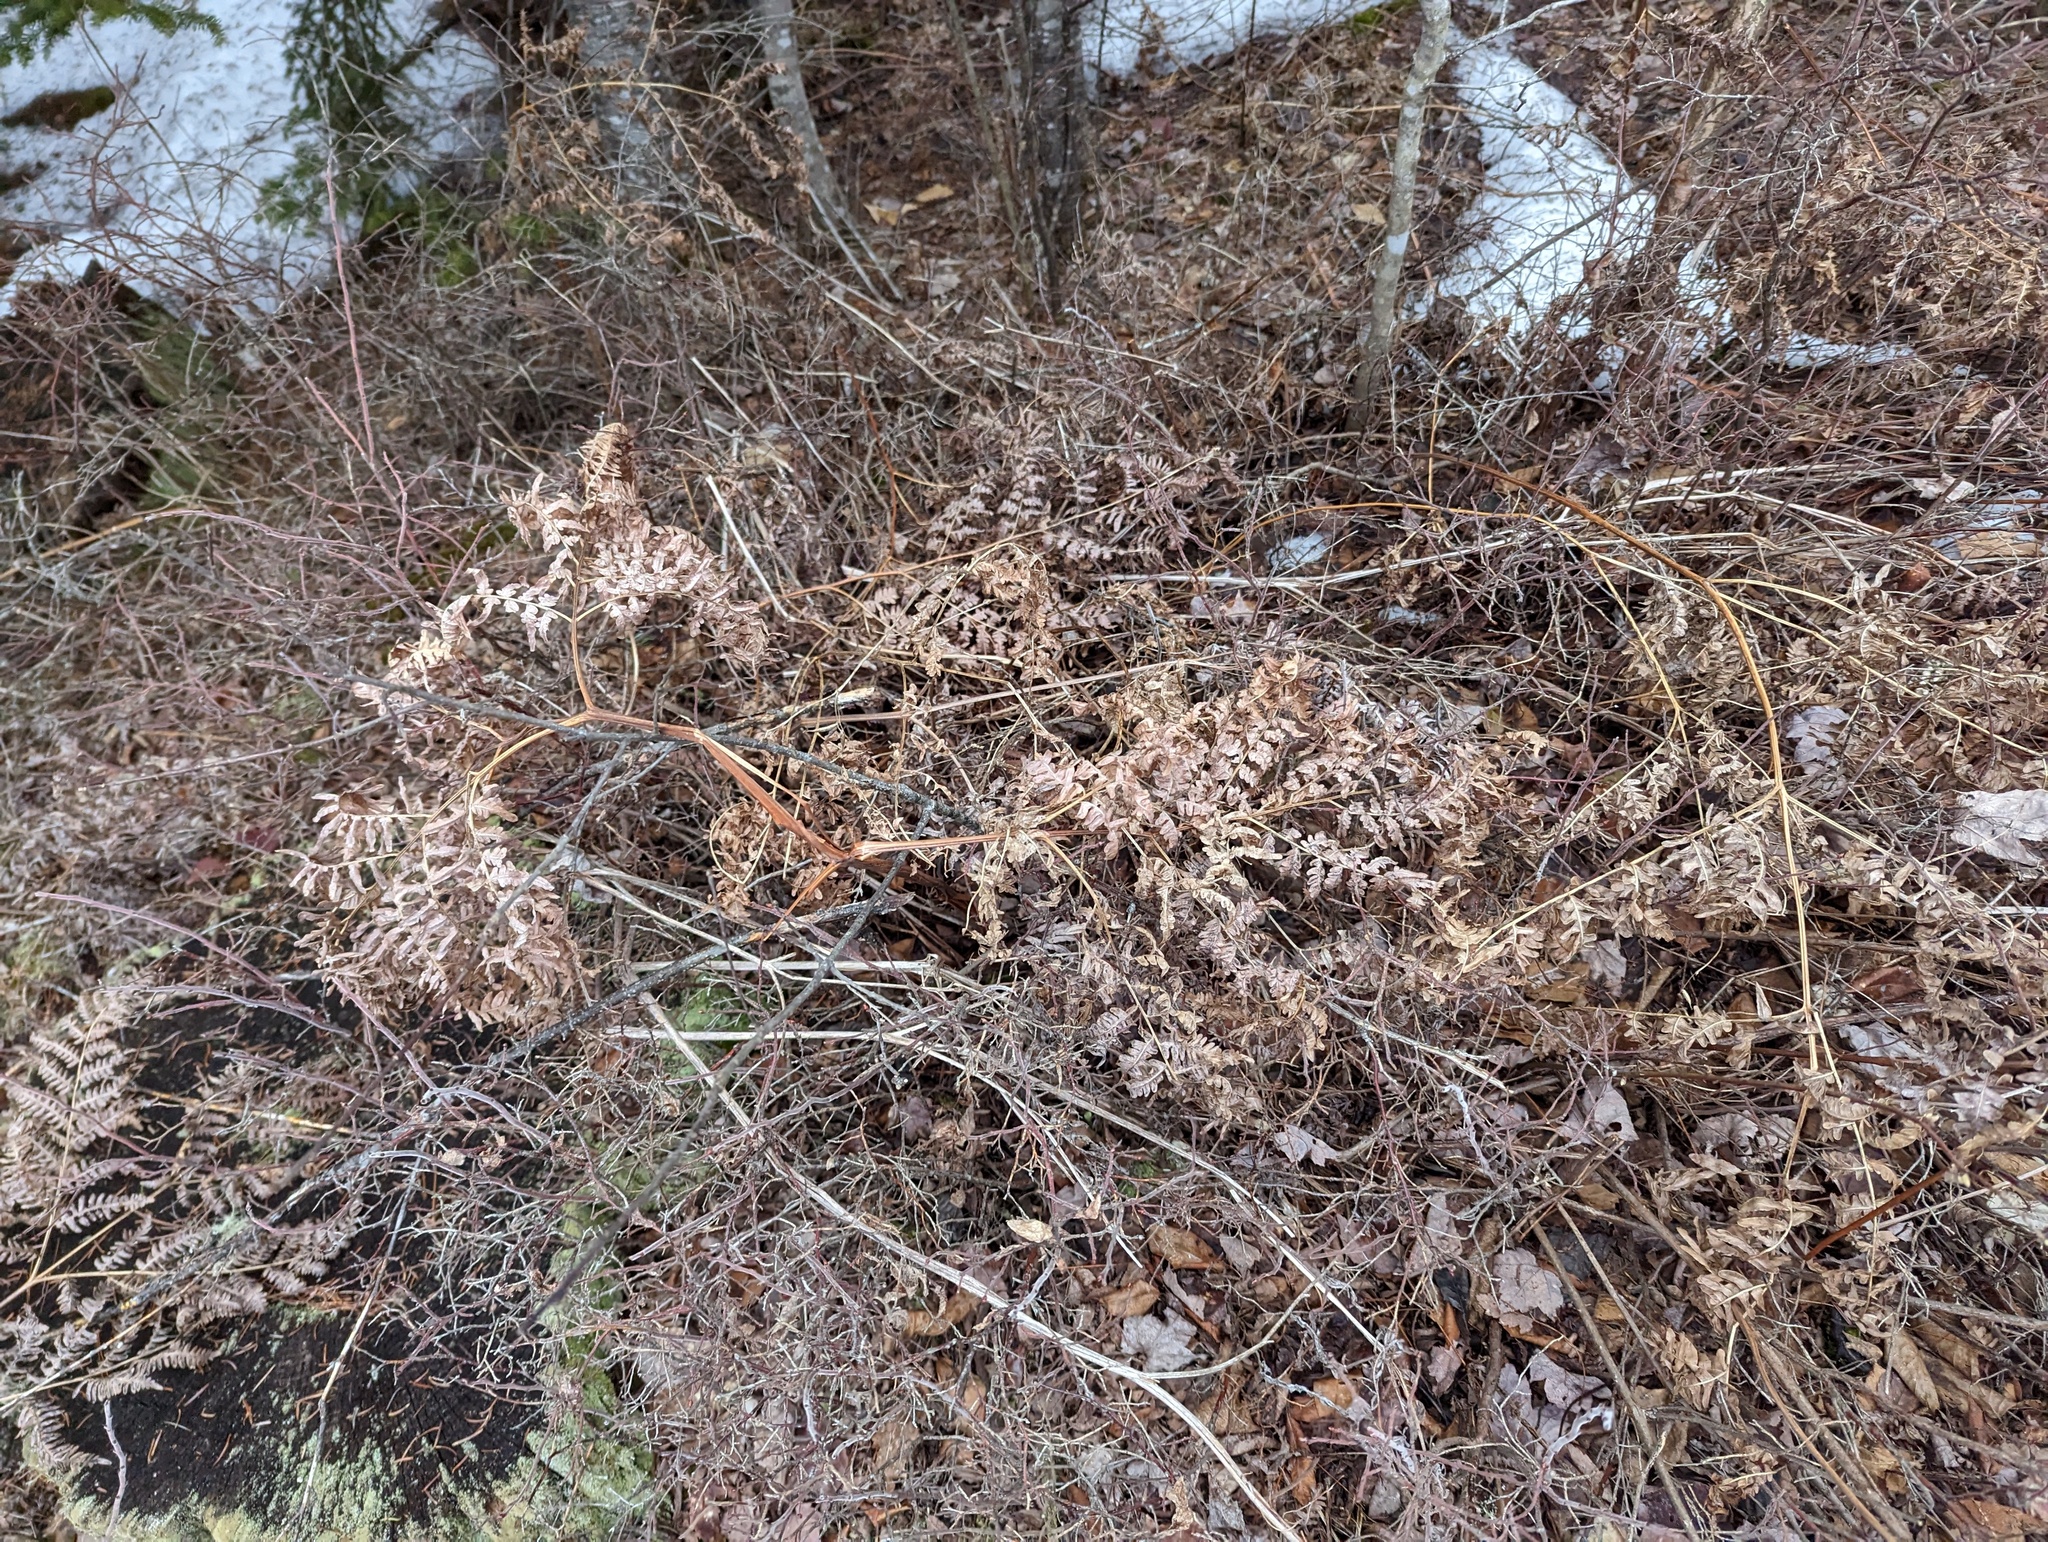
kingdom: Plantae
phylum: Tracheophyta
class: Polypodiopsida
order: Polypodiales
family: Dennstaedtiaceae
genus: Pteridium
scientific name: Pteridium aquilinum
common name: Bracken
